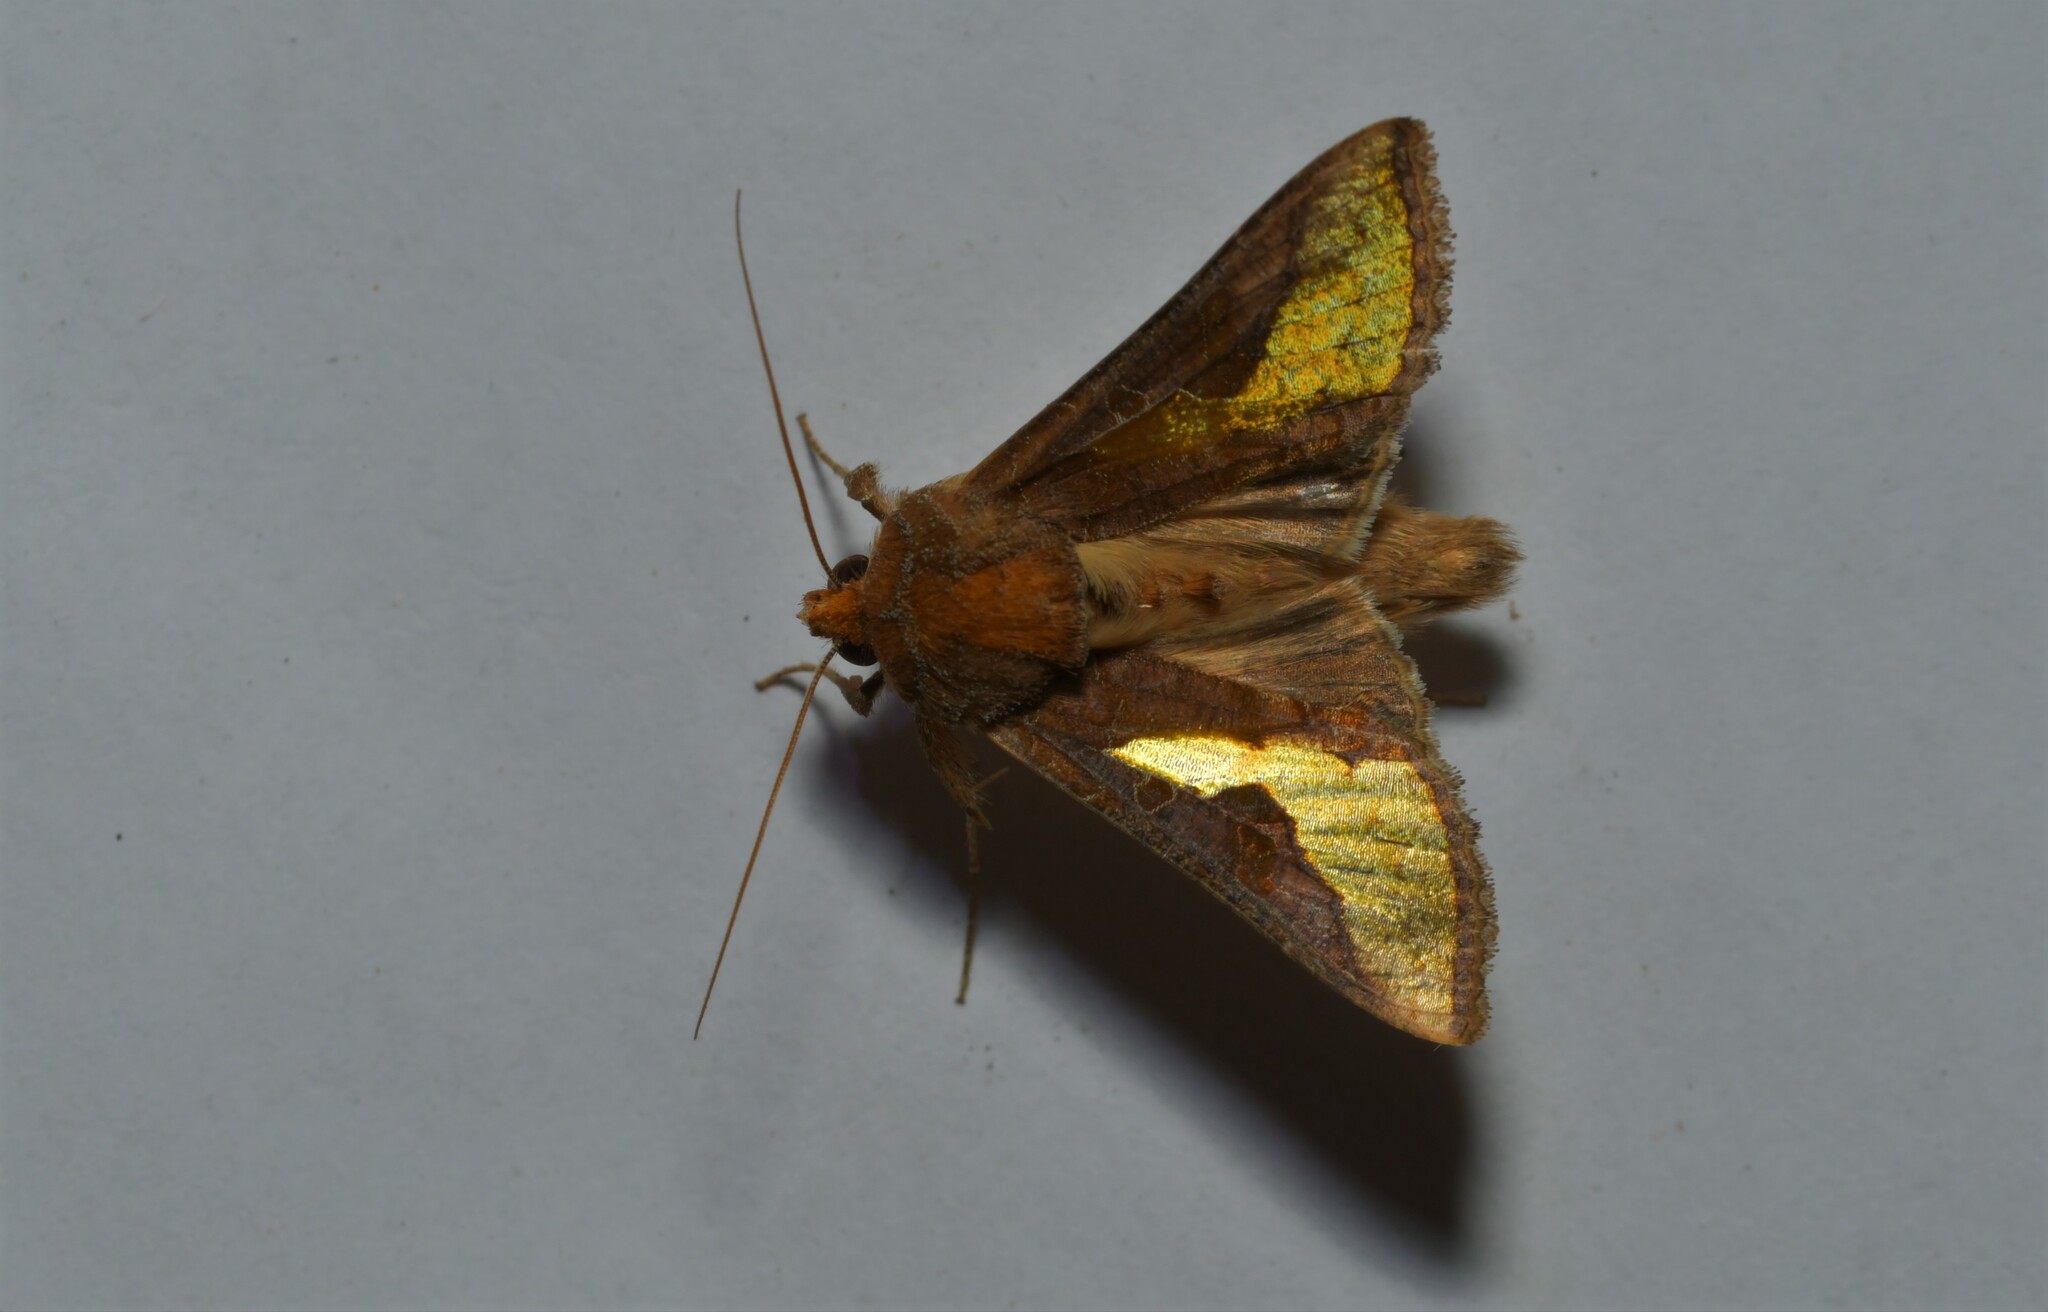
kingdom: Animalia
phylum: Arthropoda
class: Insecta
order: Lepidoptera
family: Noctuidae
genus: Thysanoplusia
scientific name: Thysanoplusia orichalcea
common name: Slender burnished brass, golden plusia
